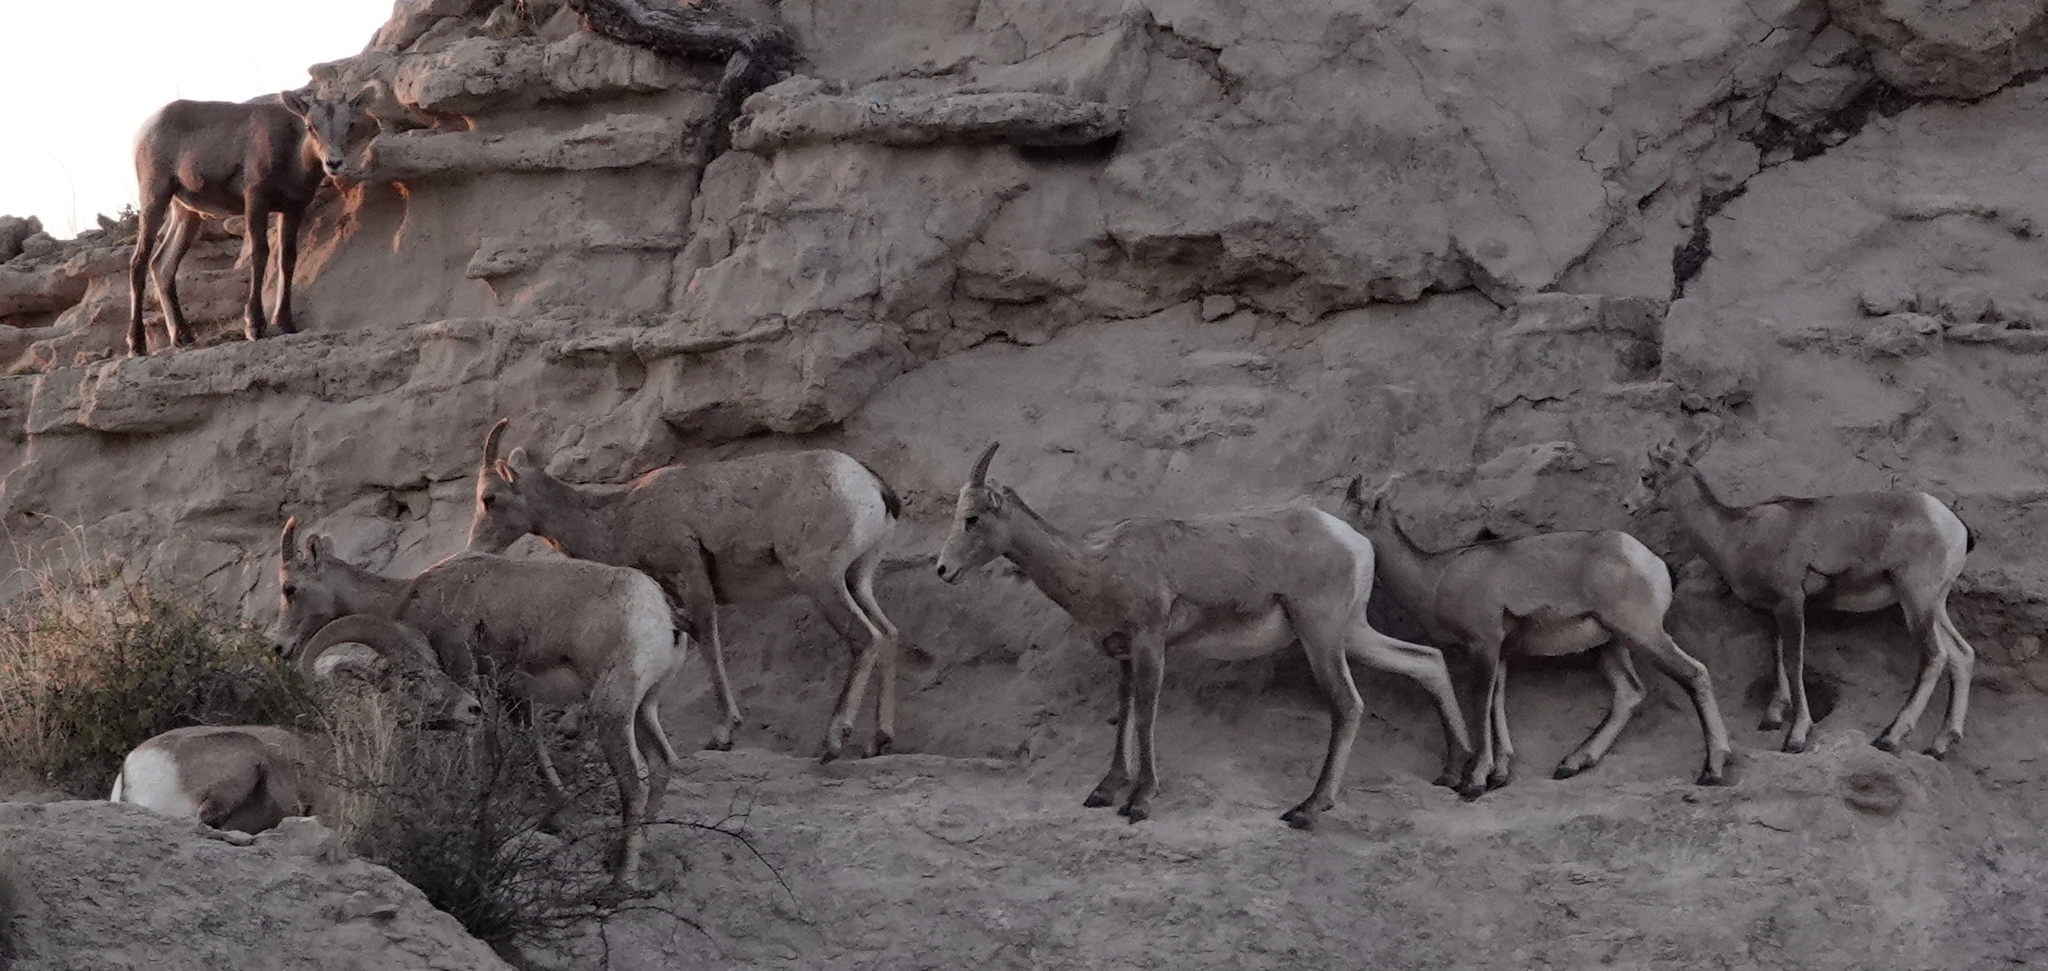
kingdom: Animalia
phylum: Chordata
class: Mammalia
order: Artiodactyla
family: Bovidae
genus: Ovis
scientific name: Ovis canadensis
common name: Bighorn sheep
